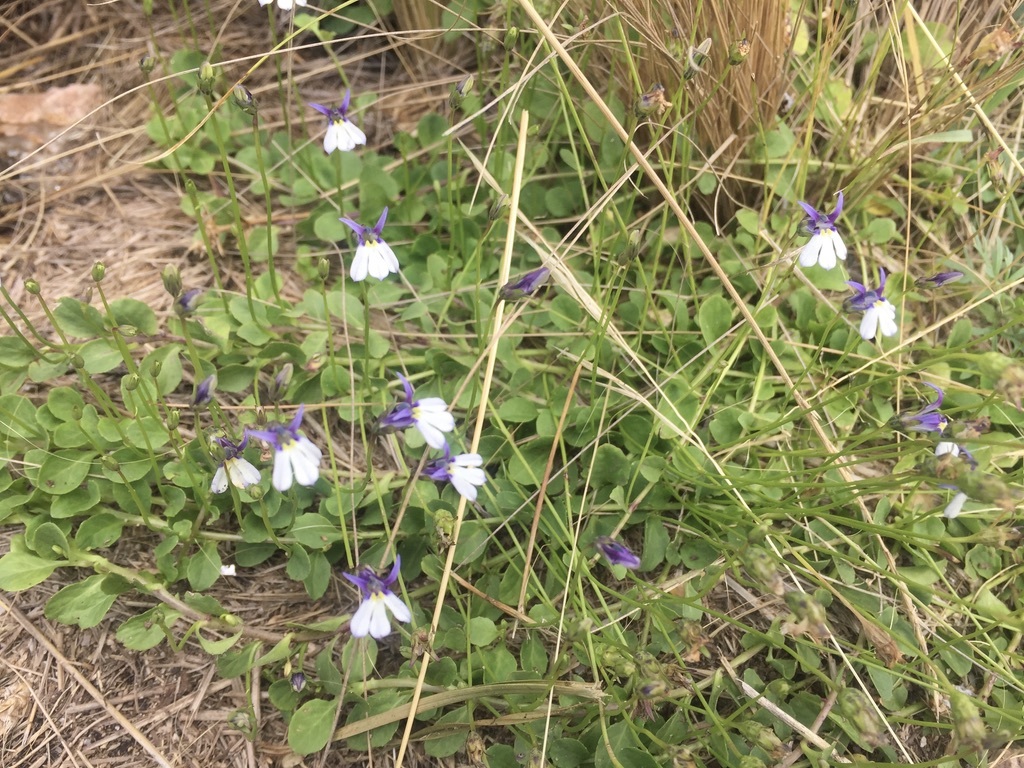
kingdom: Plantae
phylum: Tracheophyta
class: Magnoliopsida
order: Asterales
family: Campanulaceae
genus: Lobelia
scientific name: Lobelia nana
